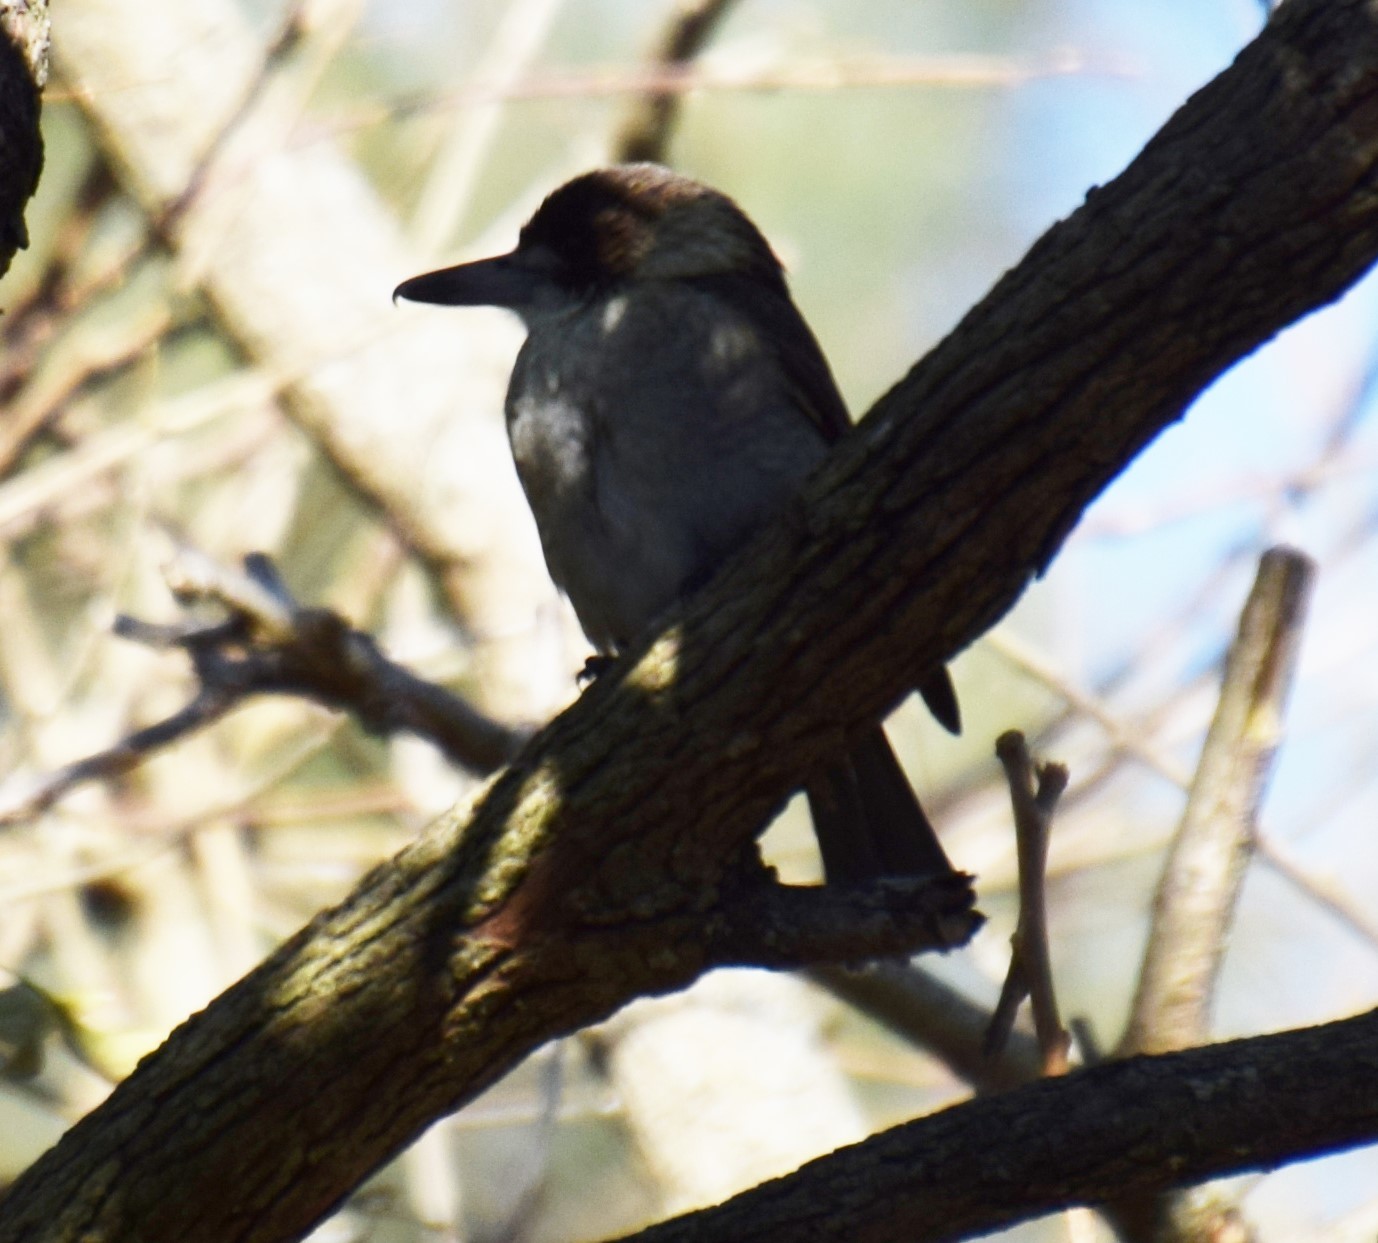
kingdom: Animalia
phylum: Chordata
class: Aves
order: Passeriformes
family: Cracticidae
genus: Cracticus
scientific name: Cracticus torquatus
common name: Grey butcherbird
